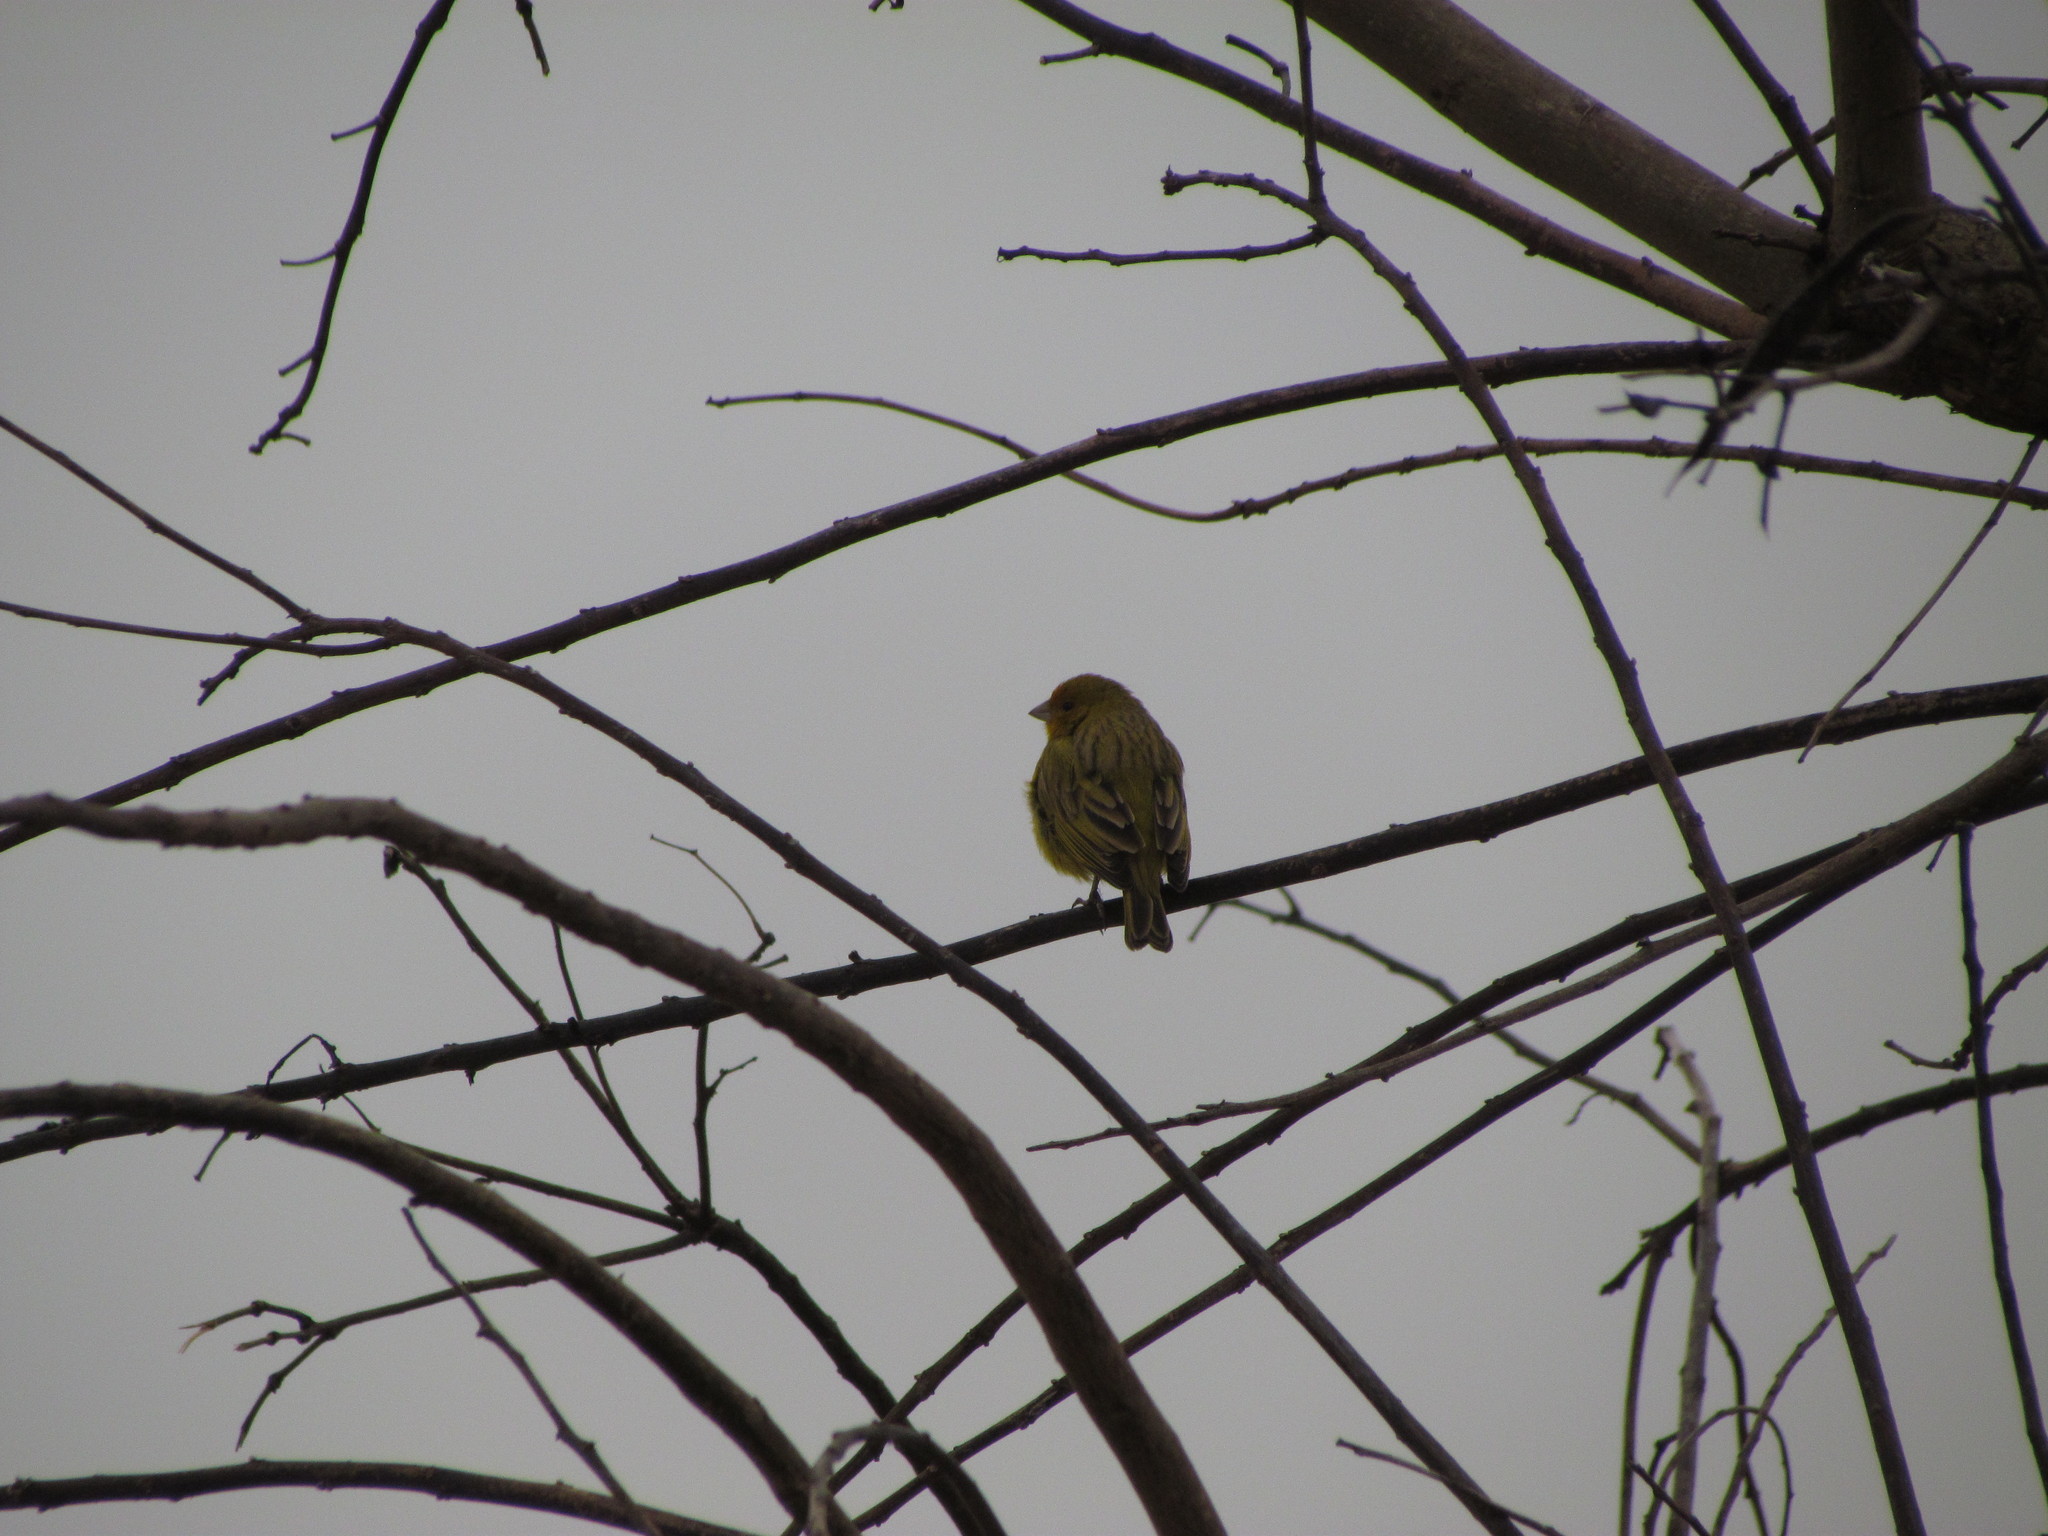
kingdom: Animalia
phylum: Chordata
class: Aves
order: Passeriformes
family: Thraupidae
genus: Sicalis
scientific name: Sicalis flaveola
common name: Saffron finch
